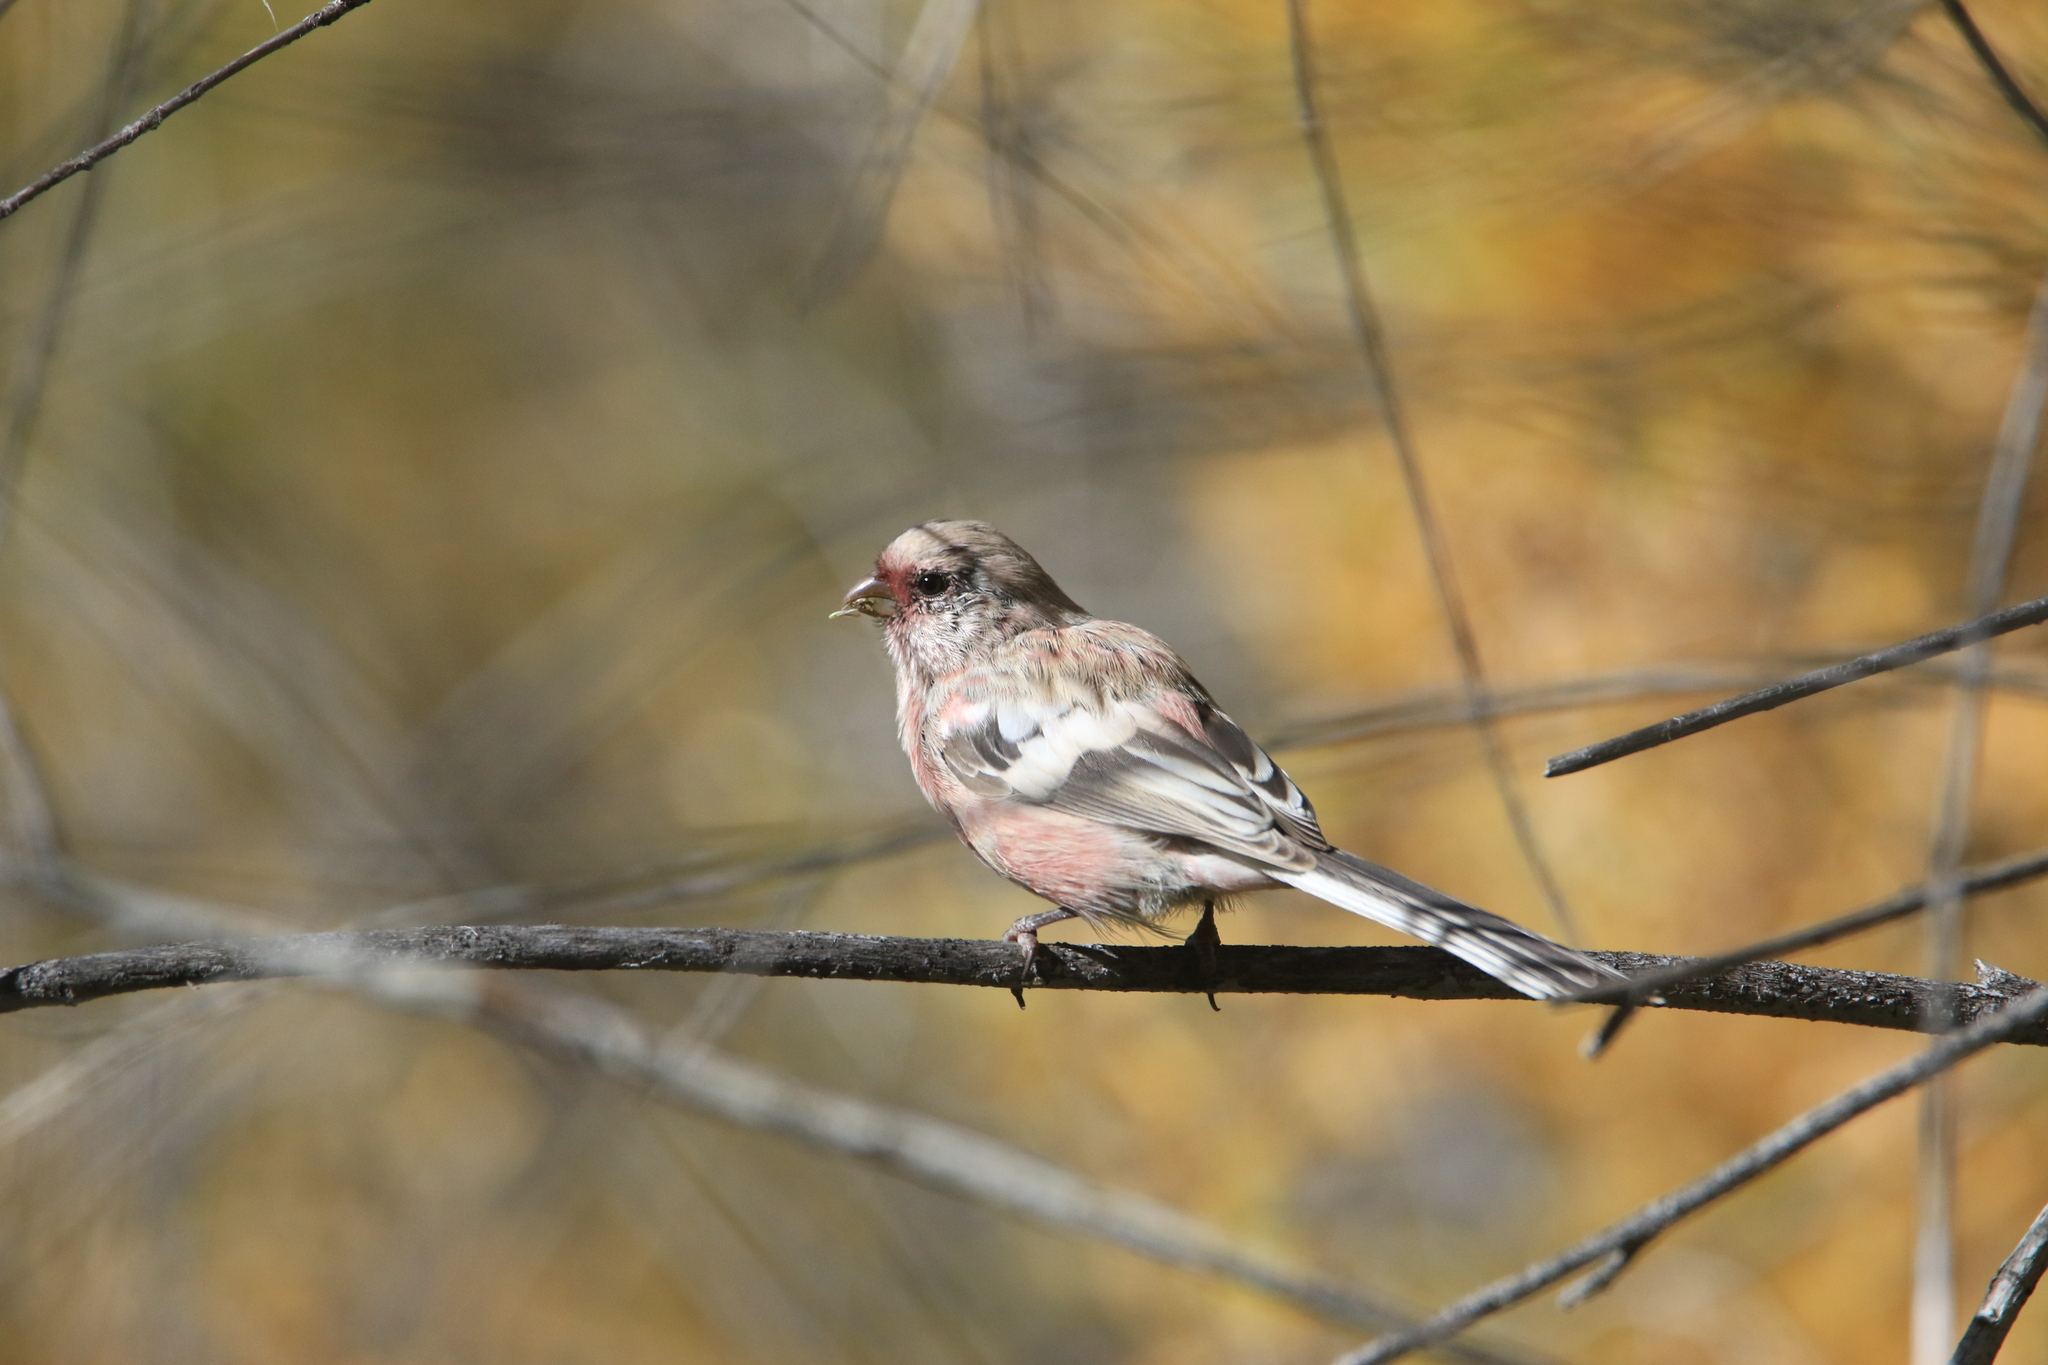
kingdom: Animalia
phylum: Chordata
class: Aves
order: Passeriformes
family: Fringillidae
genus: Carpodacus
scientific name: Carpodacus sibiricus
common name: Long-tailed rosefinch
